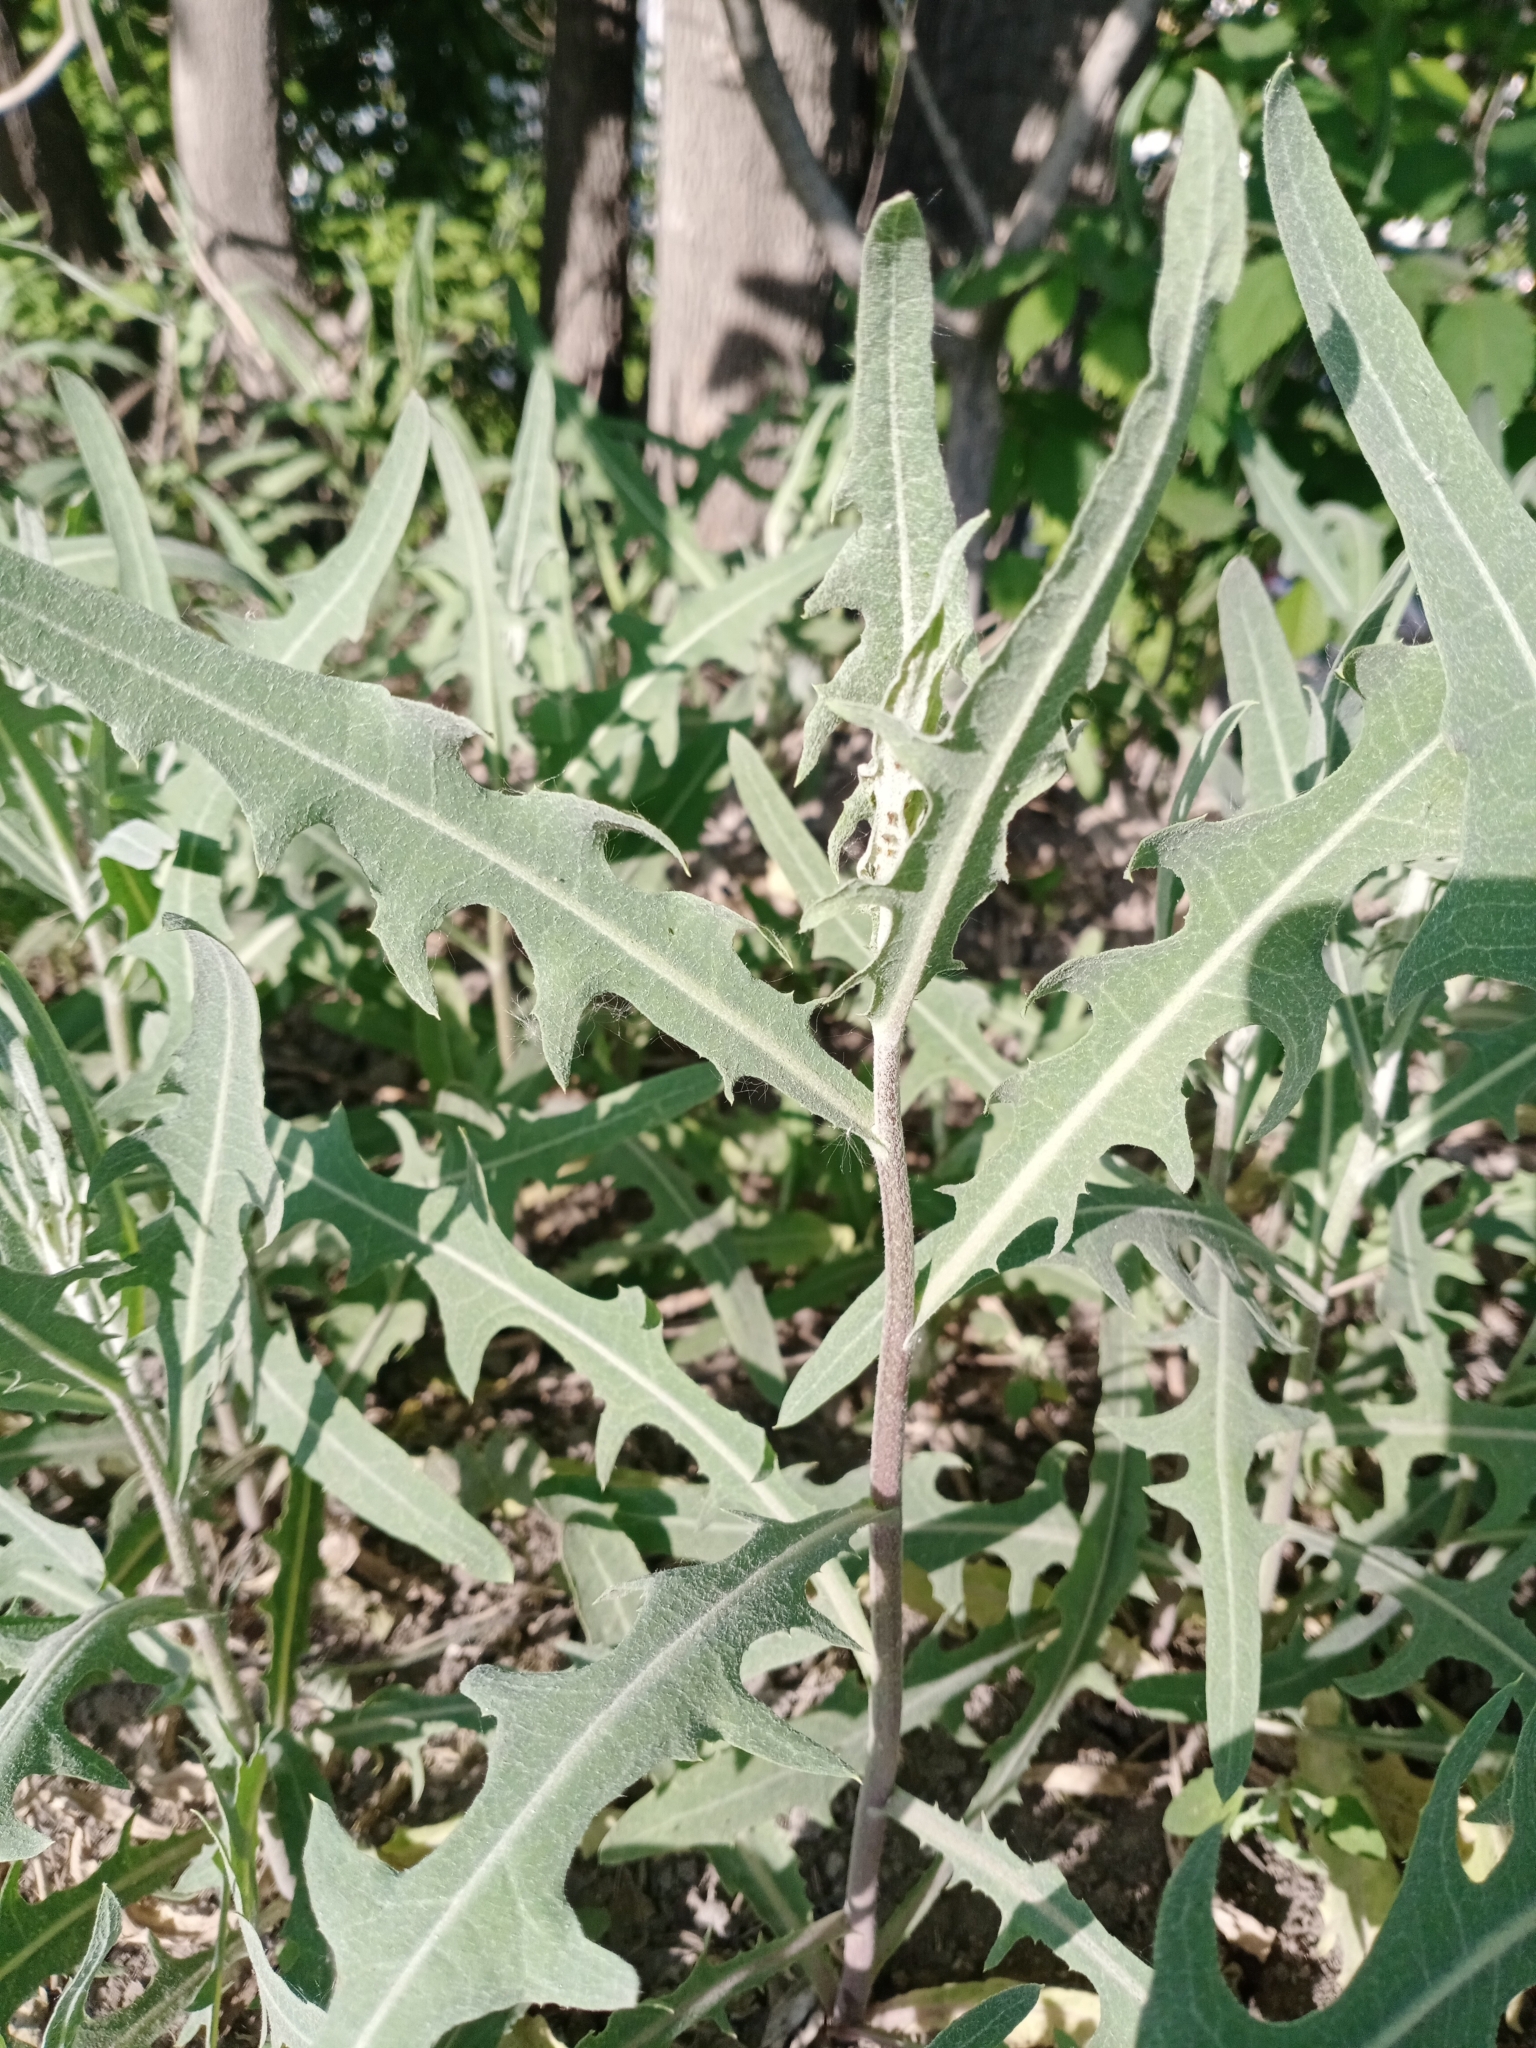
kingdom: Plantae
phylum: Tracheophyta
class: Magnoliopsida
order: Asterales
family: Asteraceae
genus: Lactuca
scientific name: Lactuca tatarica
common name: Blue lettuce
